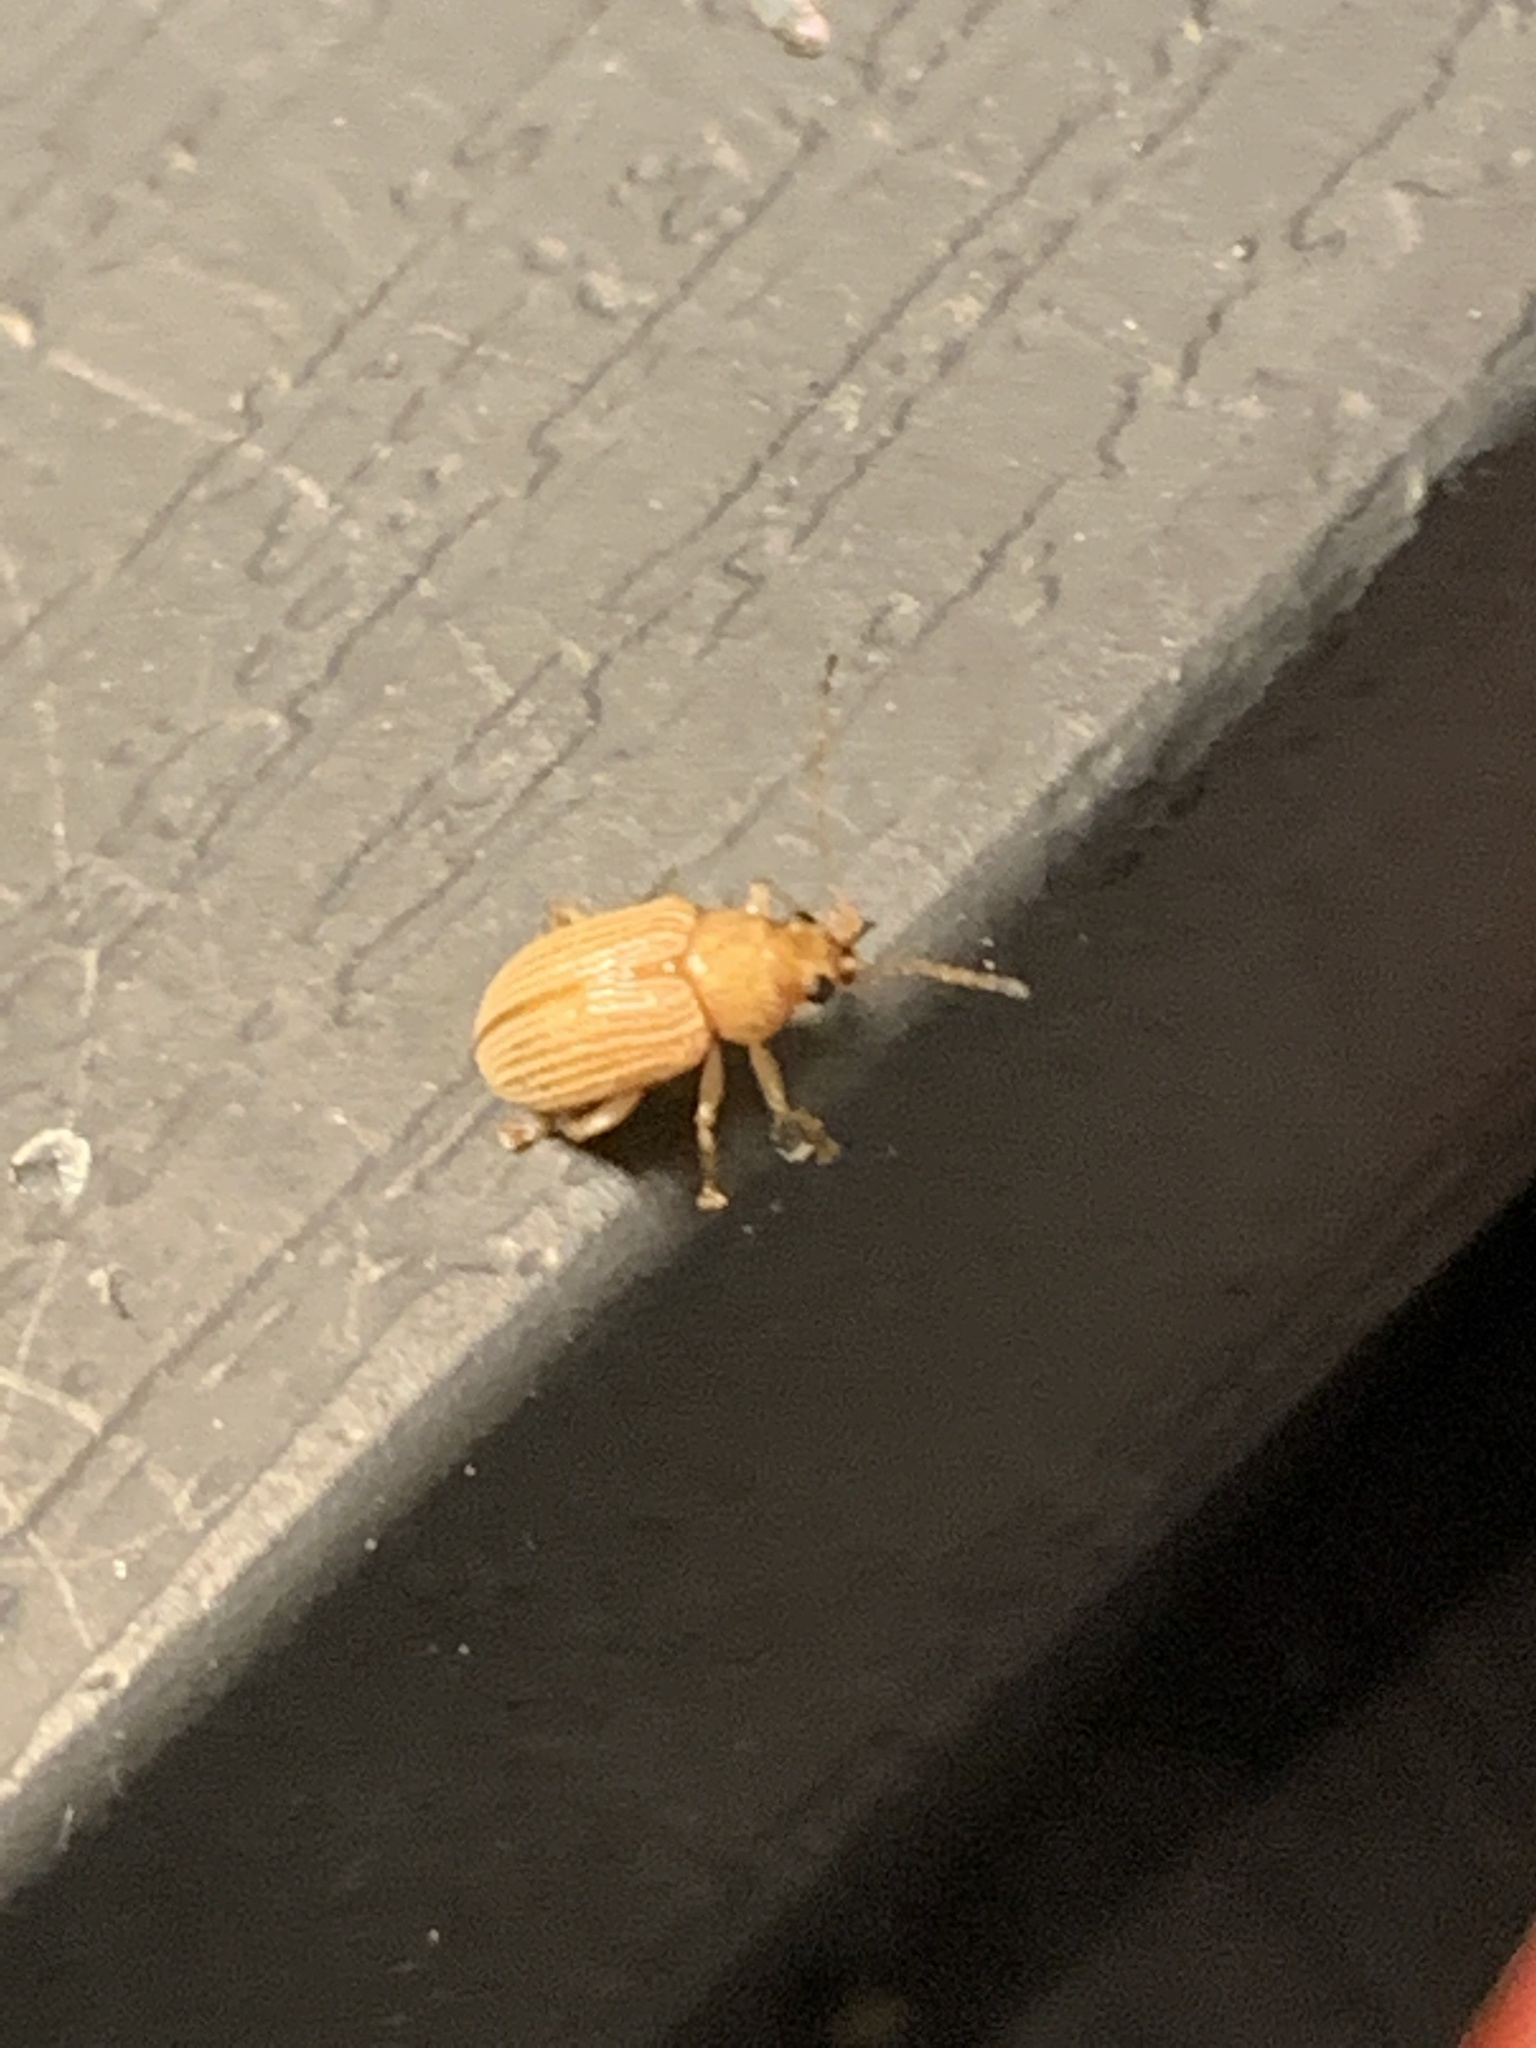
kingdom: Animalia
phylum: Arthropoda
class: Insecta
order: Coleoptera
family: Chrysomelidae
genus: Colaspis
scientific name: Colaspis brunnea
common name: Grape colaspis
